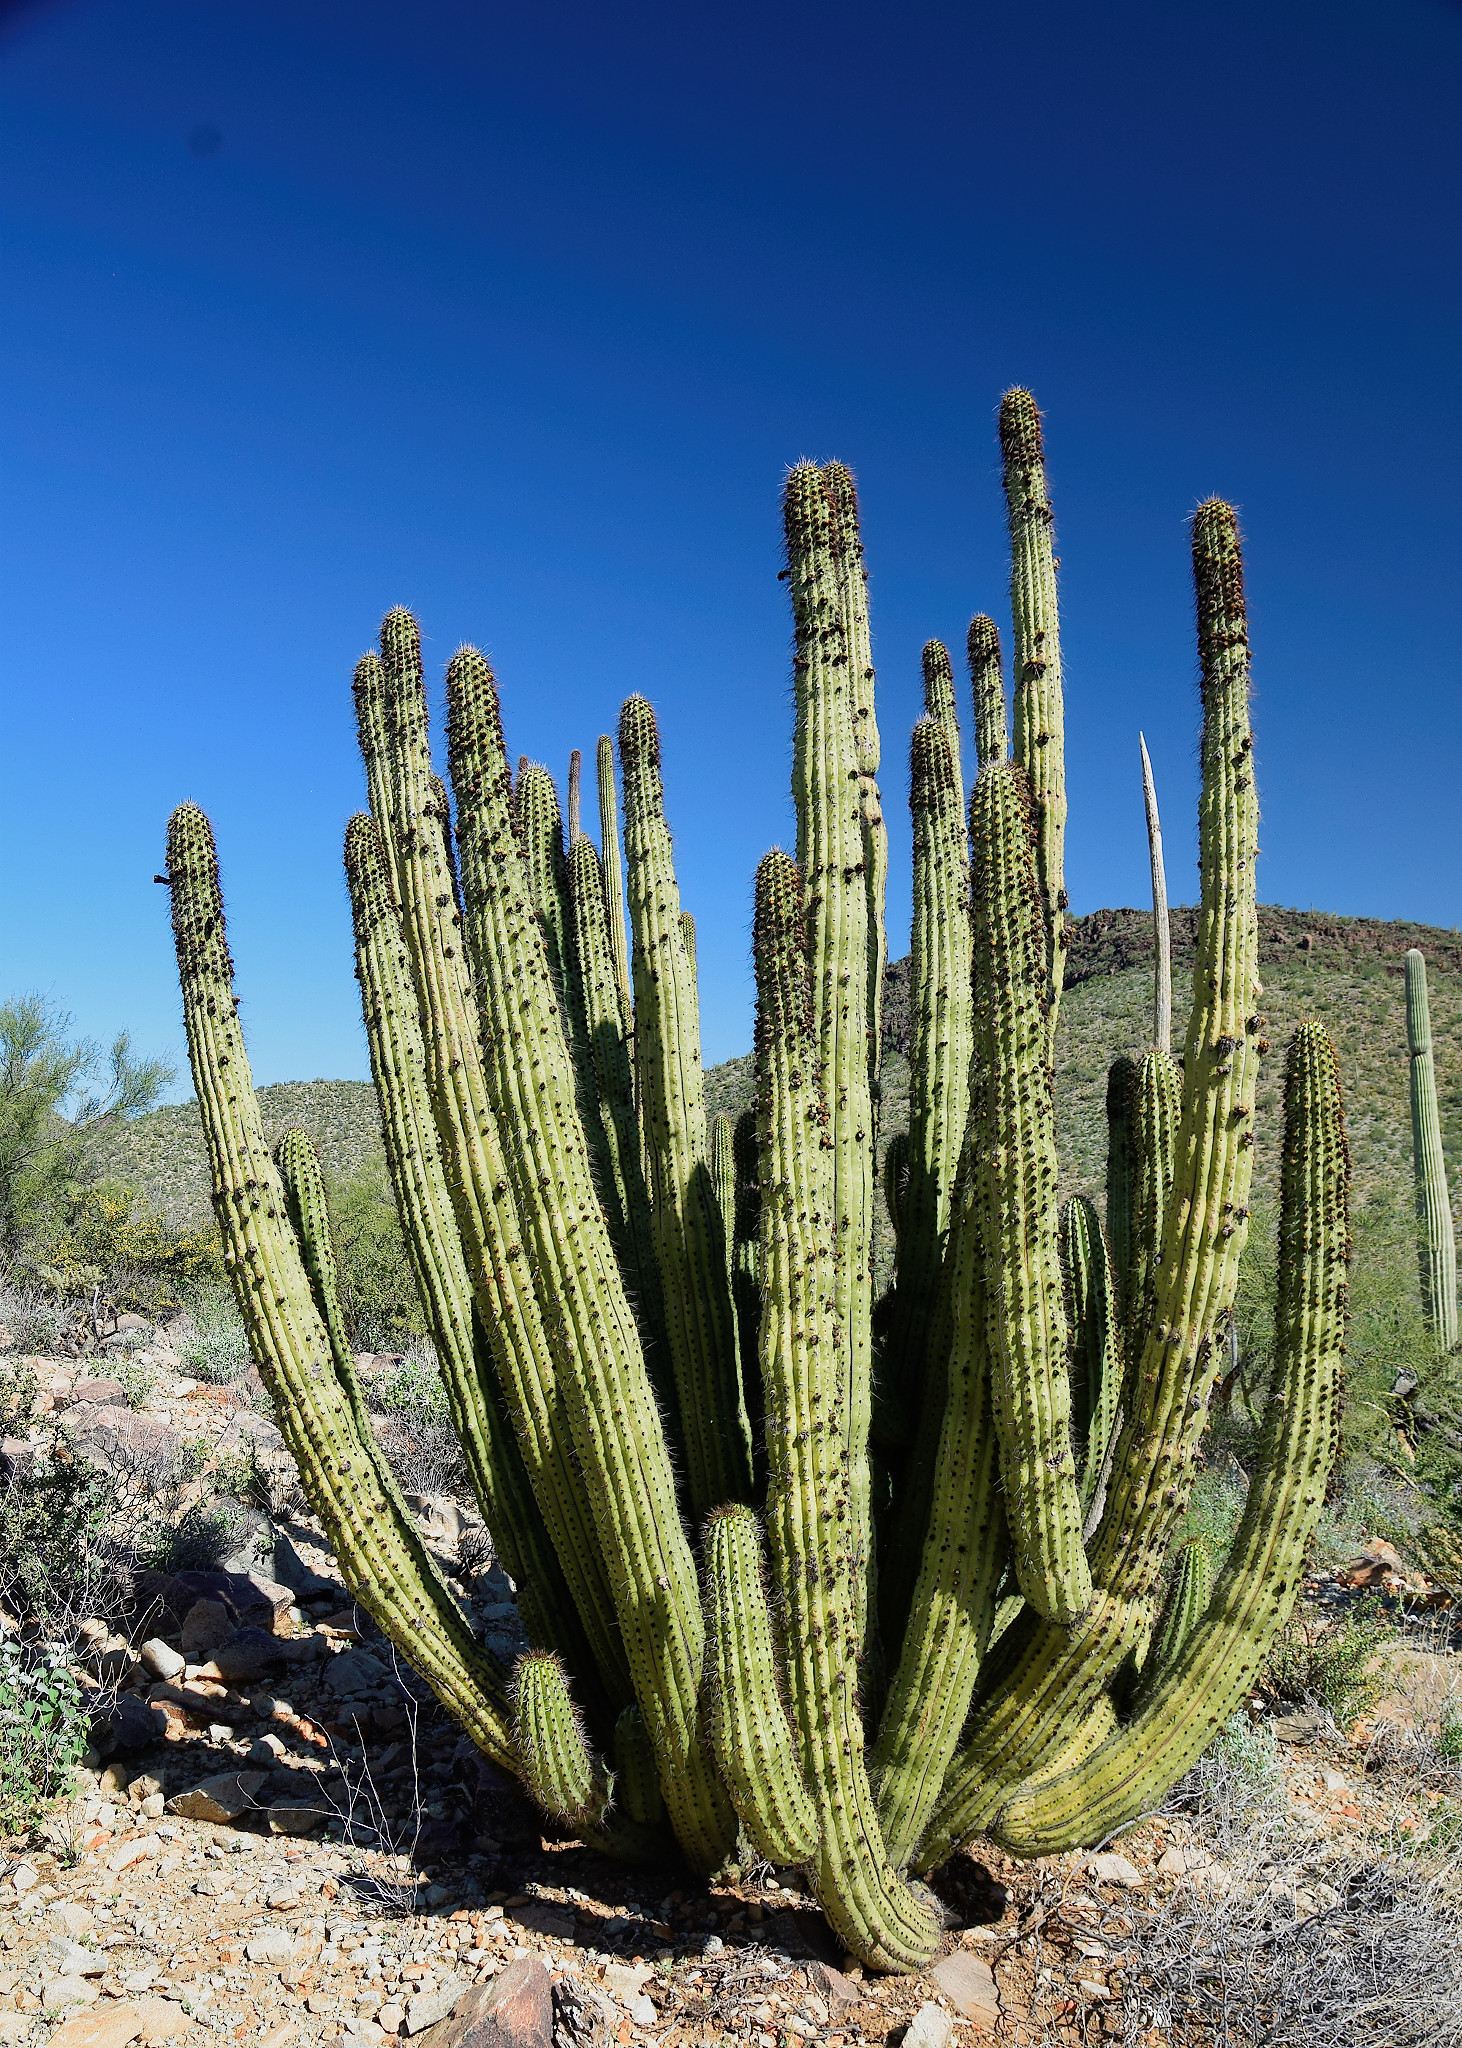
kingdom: Plantae
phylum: Tracheophyta
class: Magnoliopsida
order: Caryophyllales
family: Cactaceae
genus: Stenocereus
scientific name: Stenocereus thurberi
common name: Organ pipe cactus
